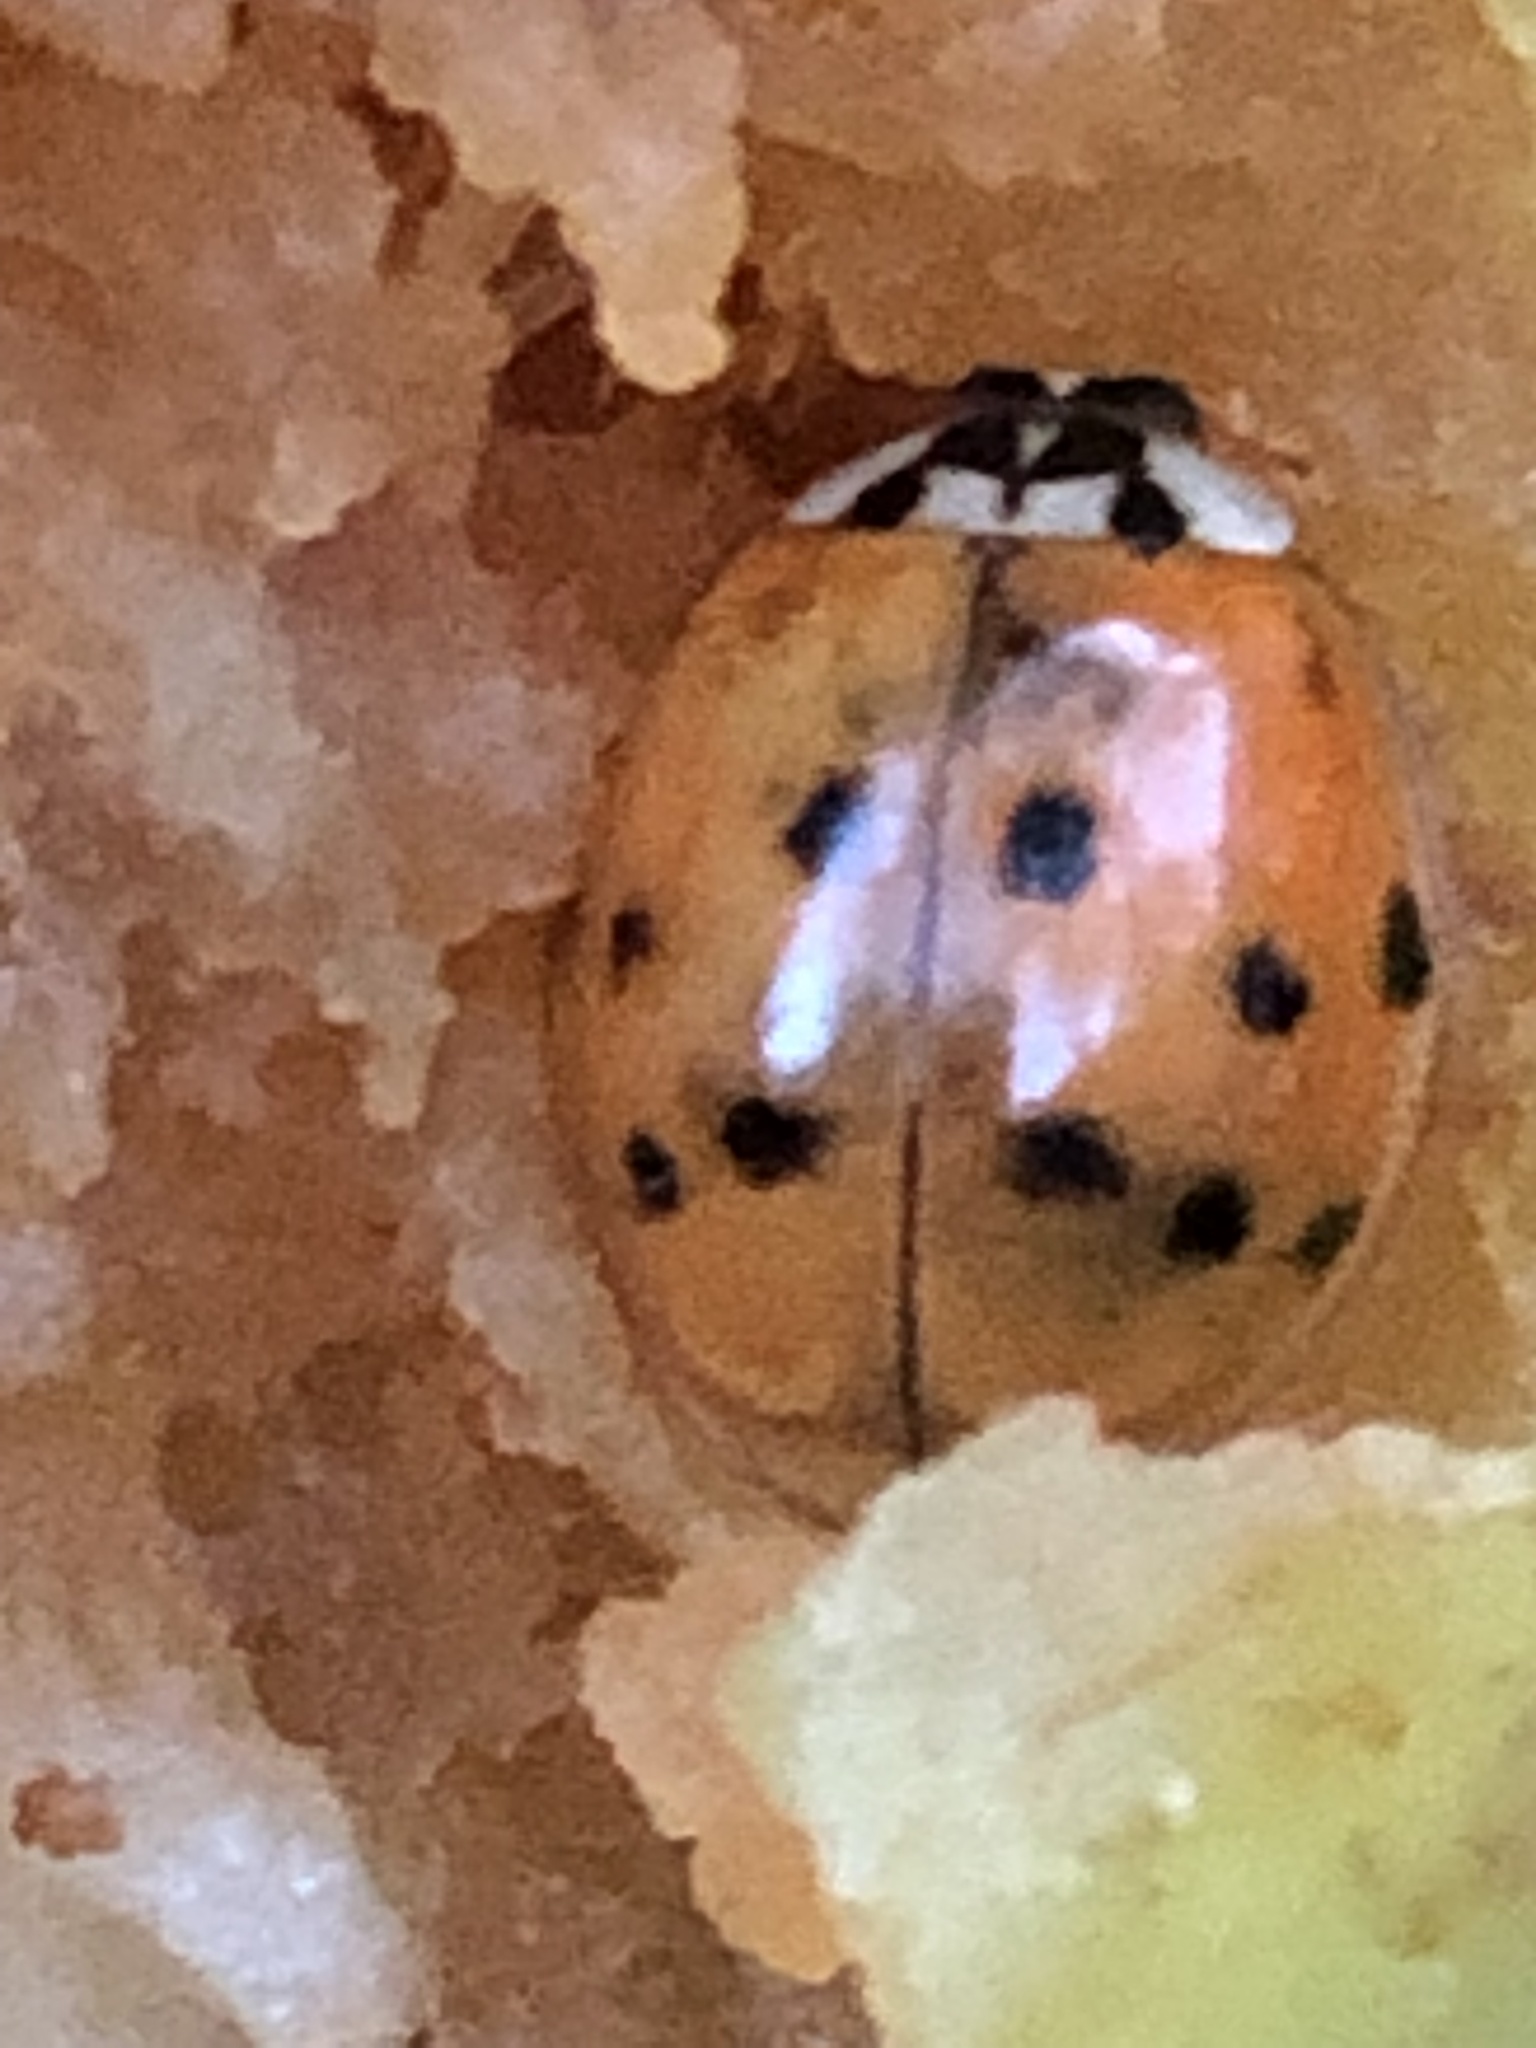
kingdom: Animalia
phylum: Arthropoda
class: Insecta
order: Coleoptera
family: Coccinellidae
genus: Harmonia
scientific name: Harmonia axyridis
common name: Harlequin ladybird
